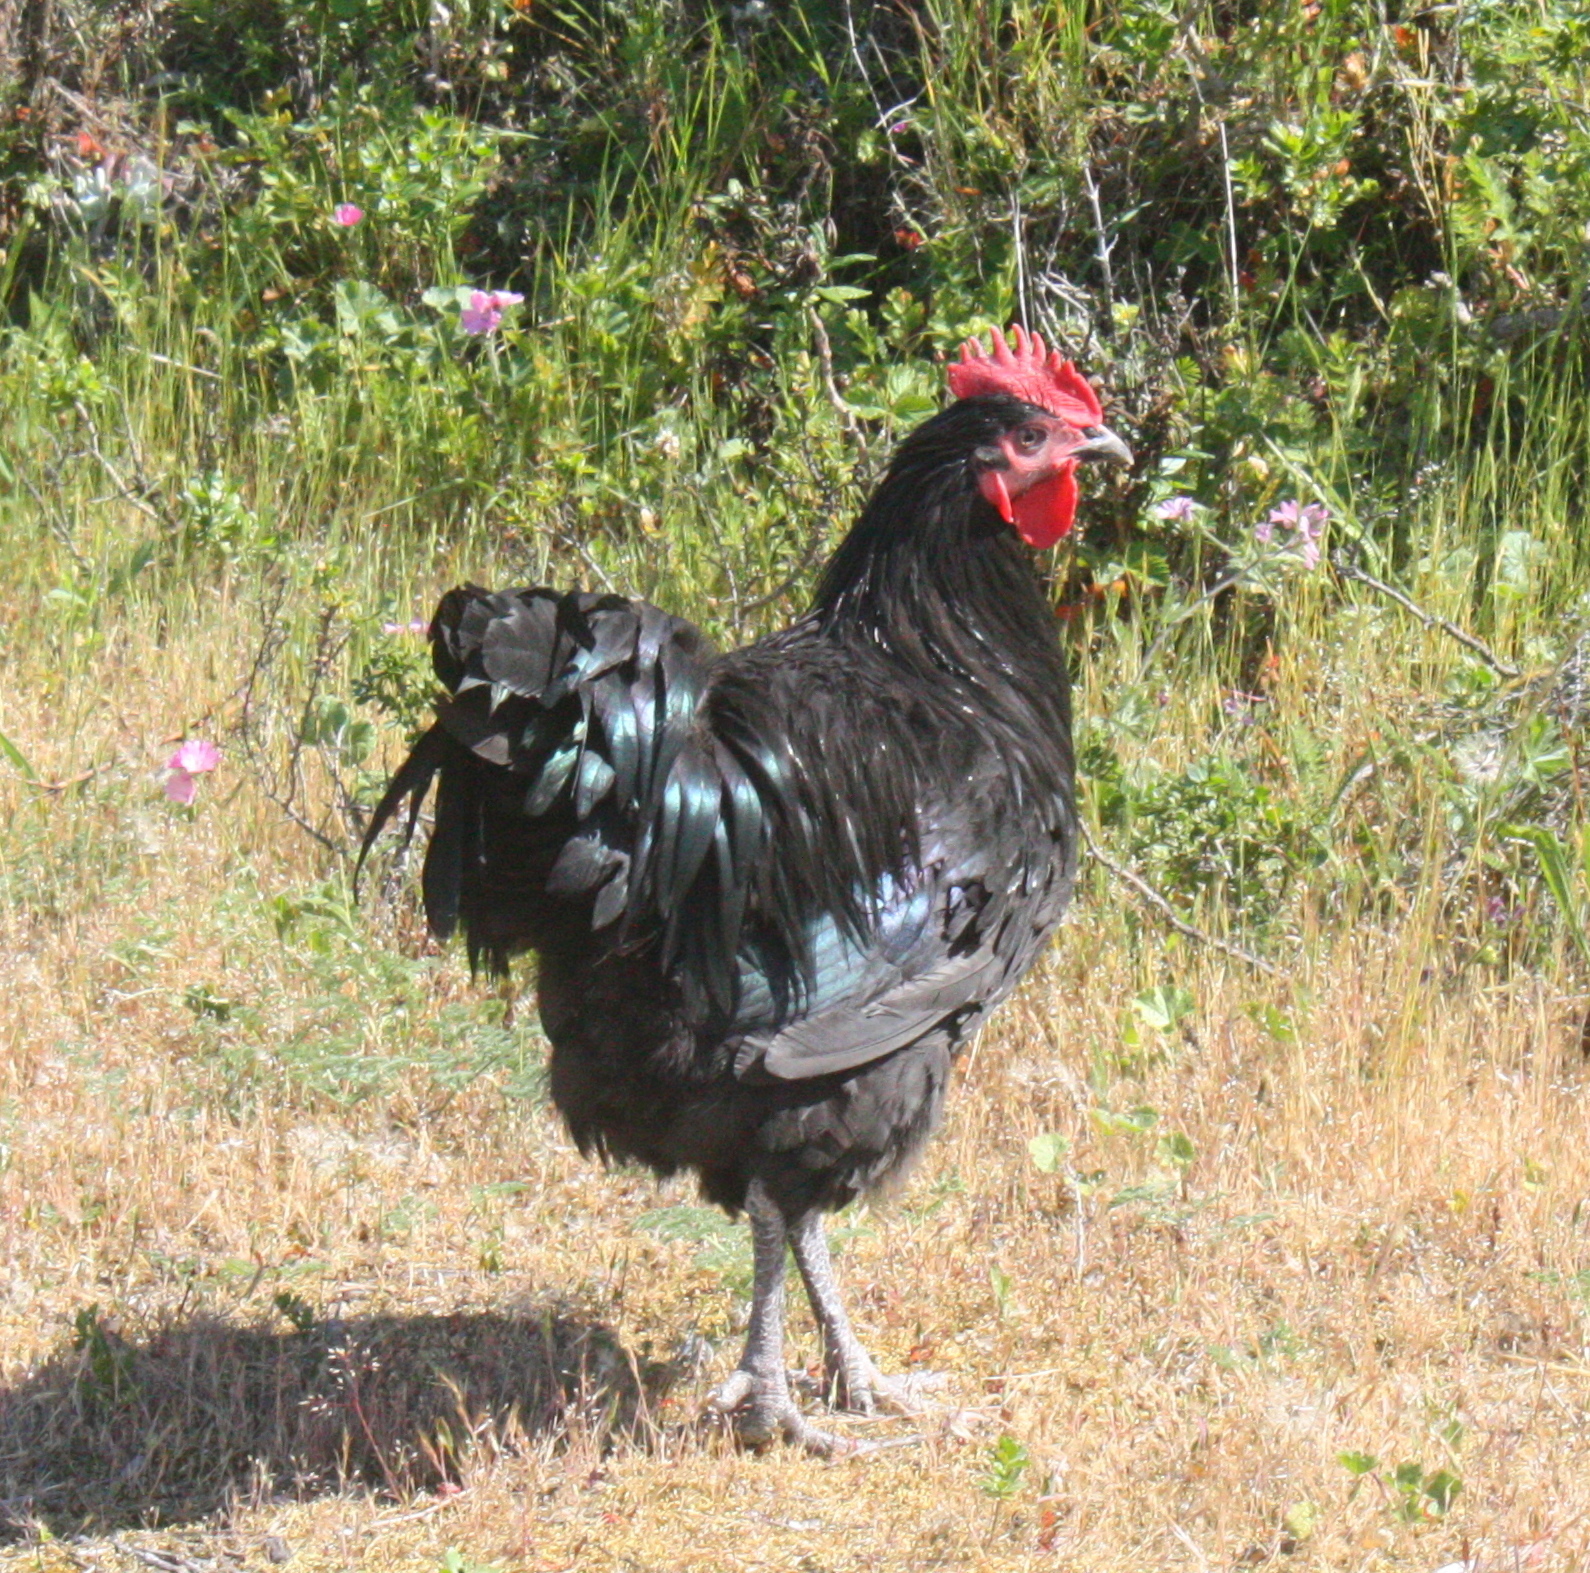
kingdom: Animalia
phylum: Chordata
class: Aves
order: Galliformes
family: Phasianidae
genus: Gallus
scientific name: Gallus gallus
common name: Red junglefowl
